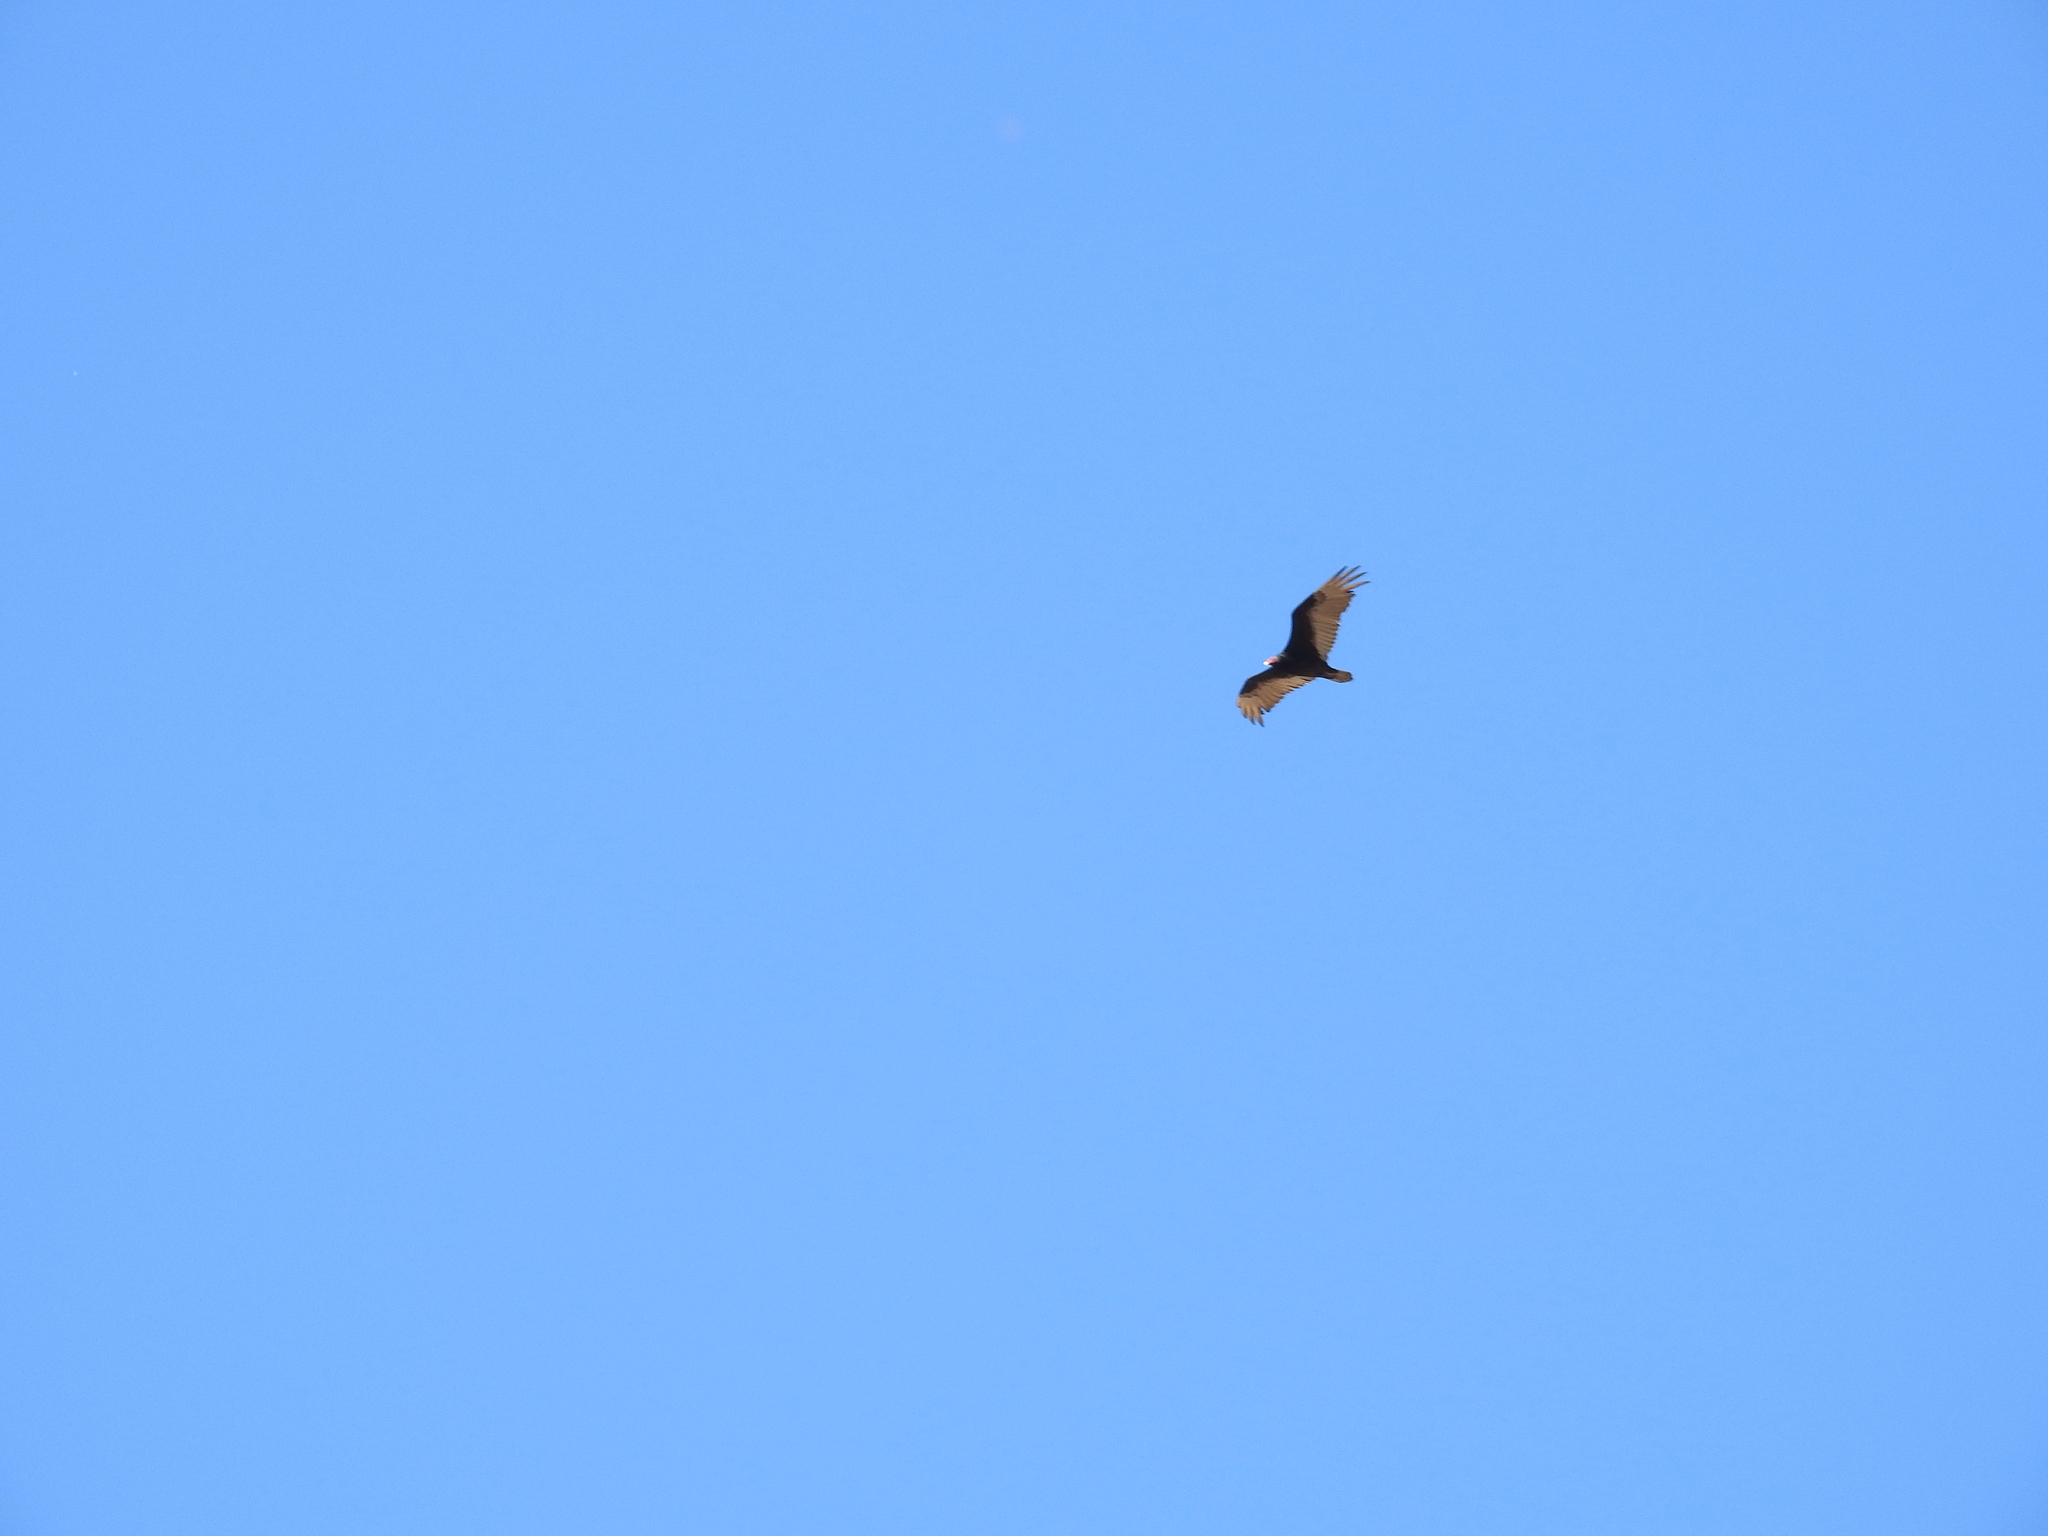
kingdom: Animalia
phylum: Chordata
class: Aves
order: Accipitriformes
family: Cathartidae
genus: Cathartes
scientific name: Cathartes aura
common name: Turkey vulture
